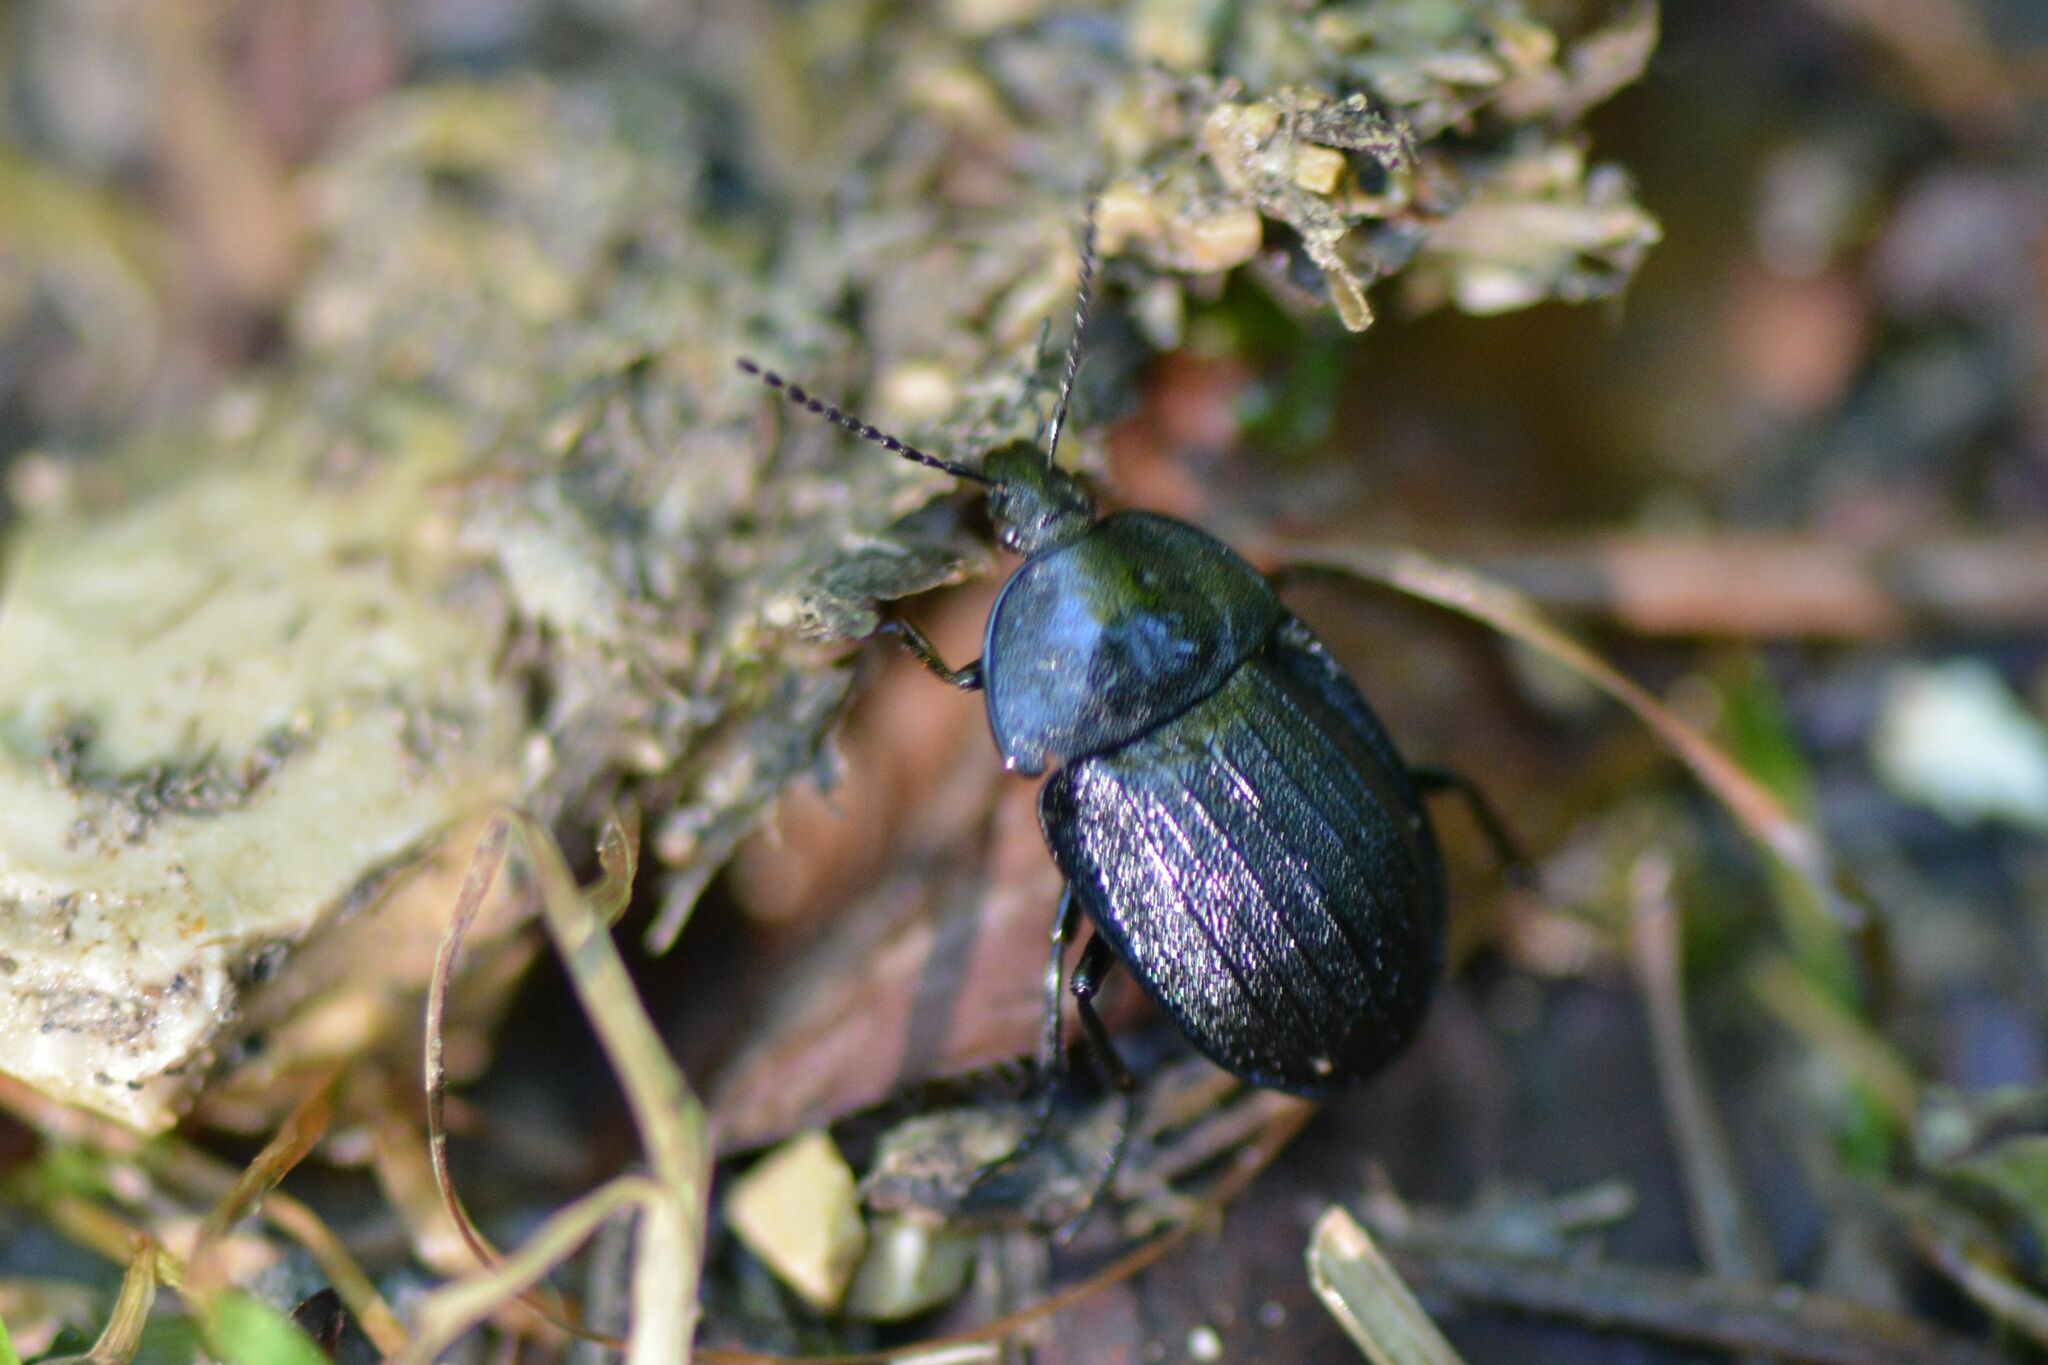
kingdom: Animalia
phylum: Arthropoda
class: Insecta
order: Coleoptera
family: Staphylinidae
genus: Silpha
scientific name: Silpha atrata
